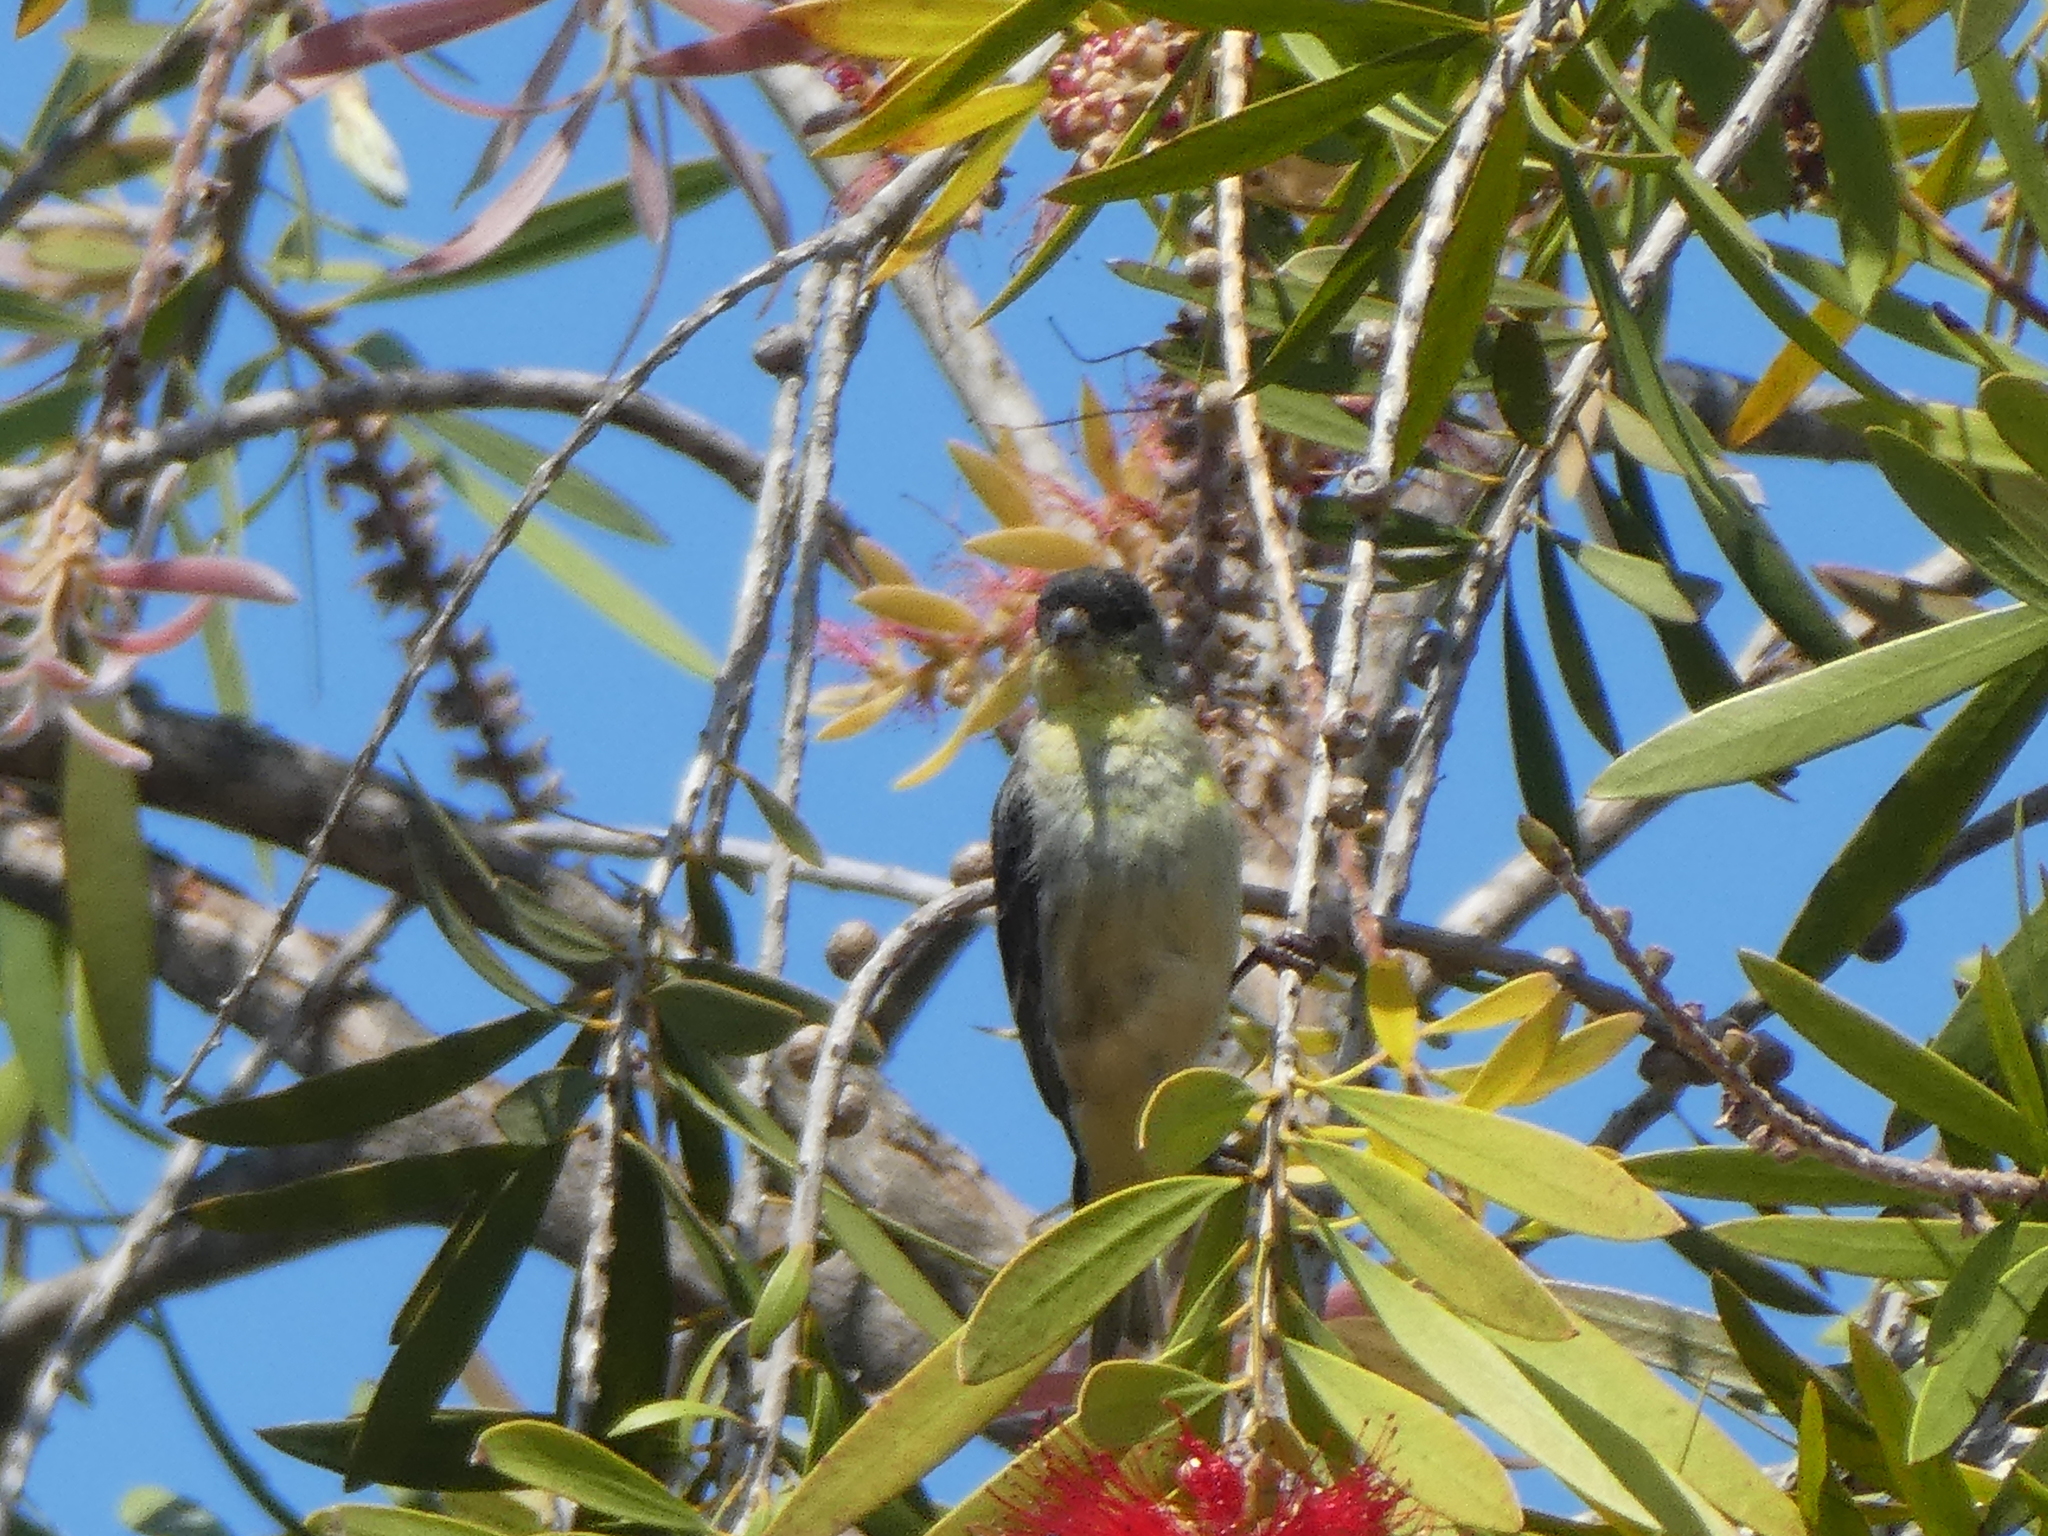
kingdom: Animalia
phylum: Chordata
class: Aves
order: Passeriformes
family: Fringillidae
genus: Spinus
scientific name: Spinus psaltria
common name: Lesser goldfinch
